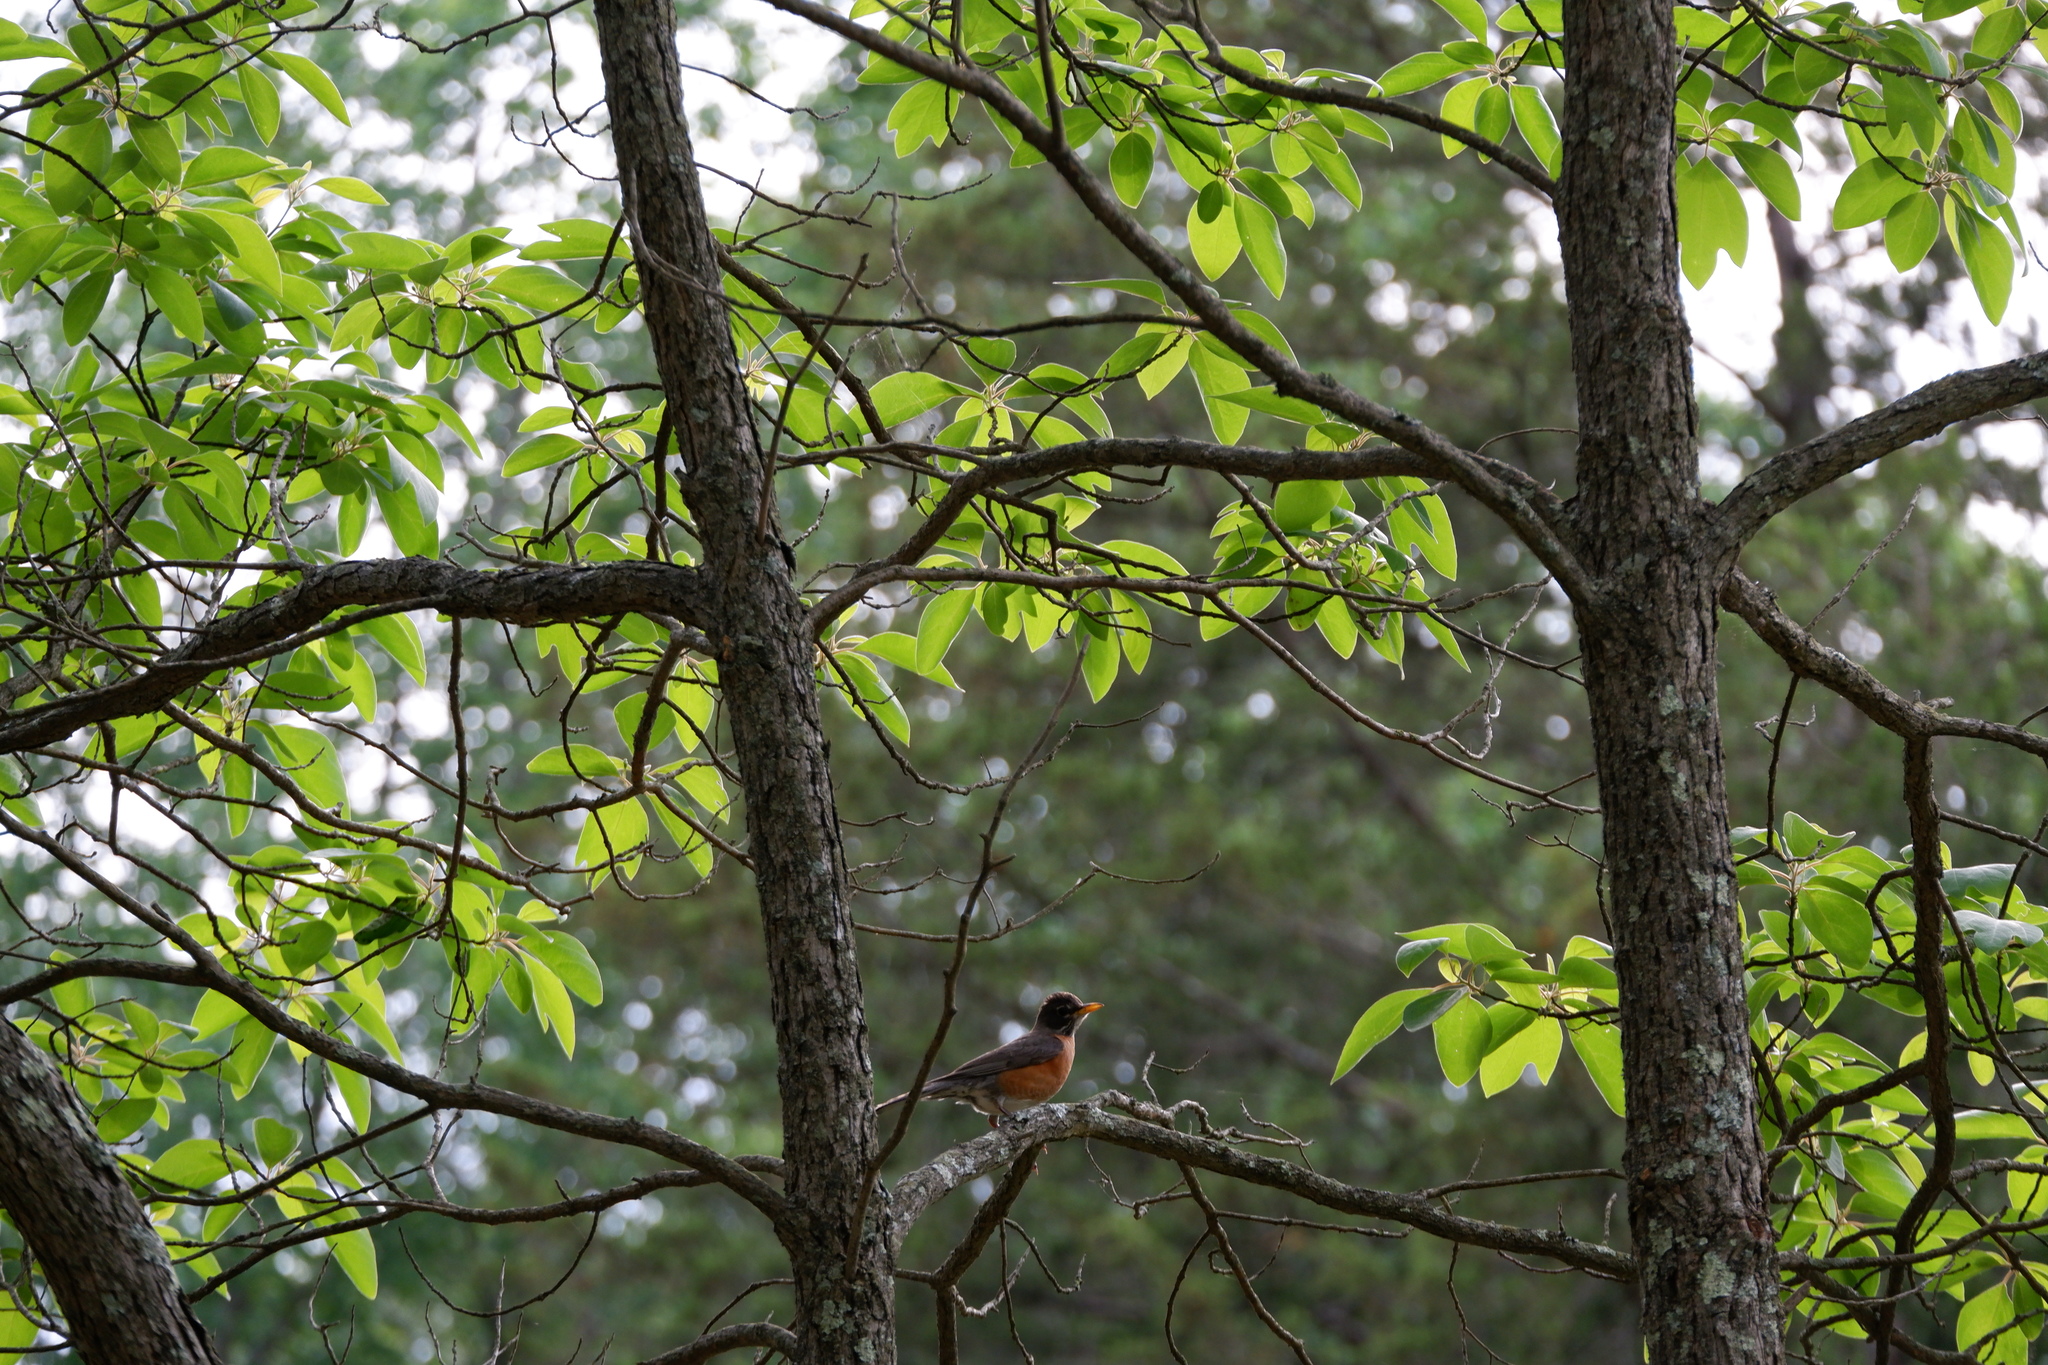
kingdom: Animalia
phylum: Chordata
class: Aves
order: Passeriformes
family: Turdidae
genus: Turdus
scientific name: Turdus migratorius
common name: American robin
